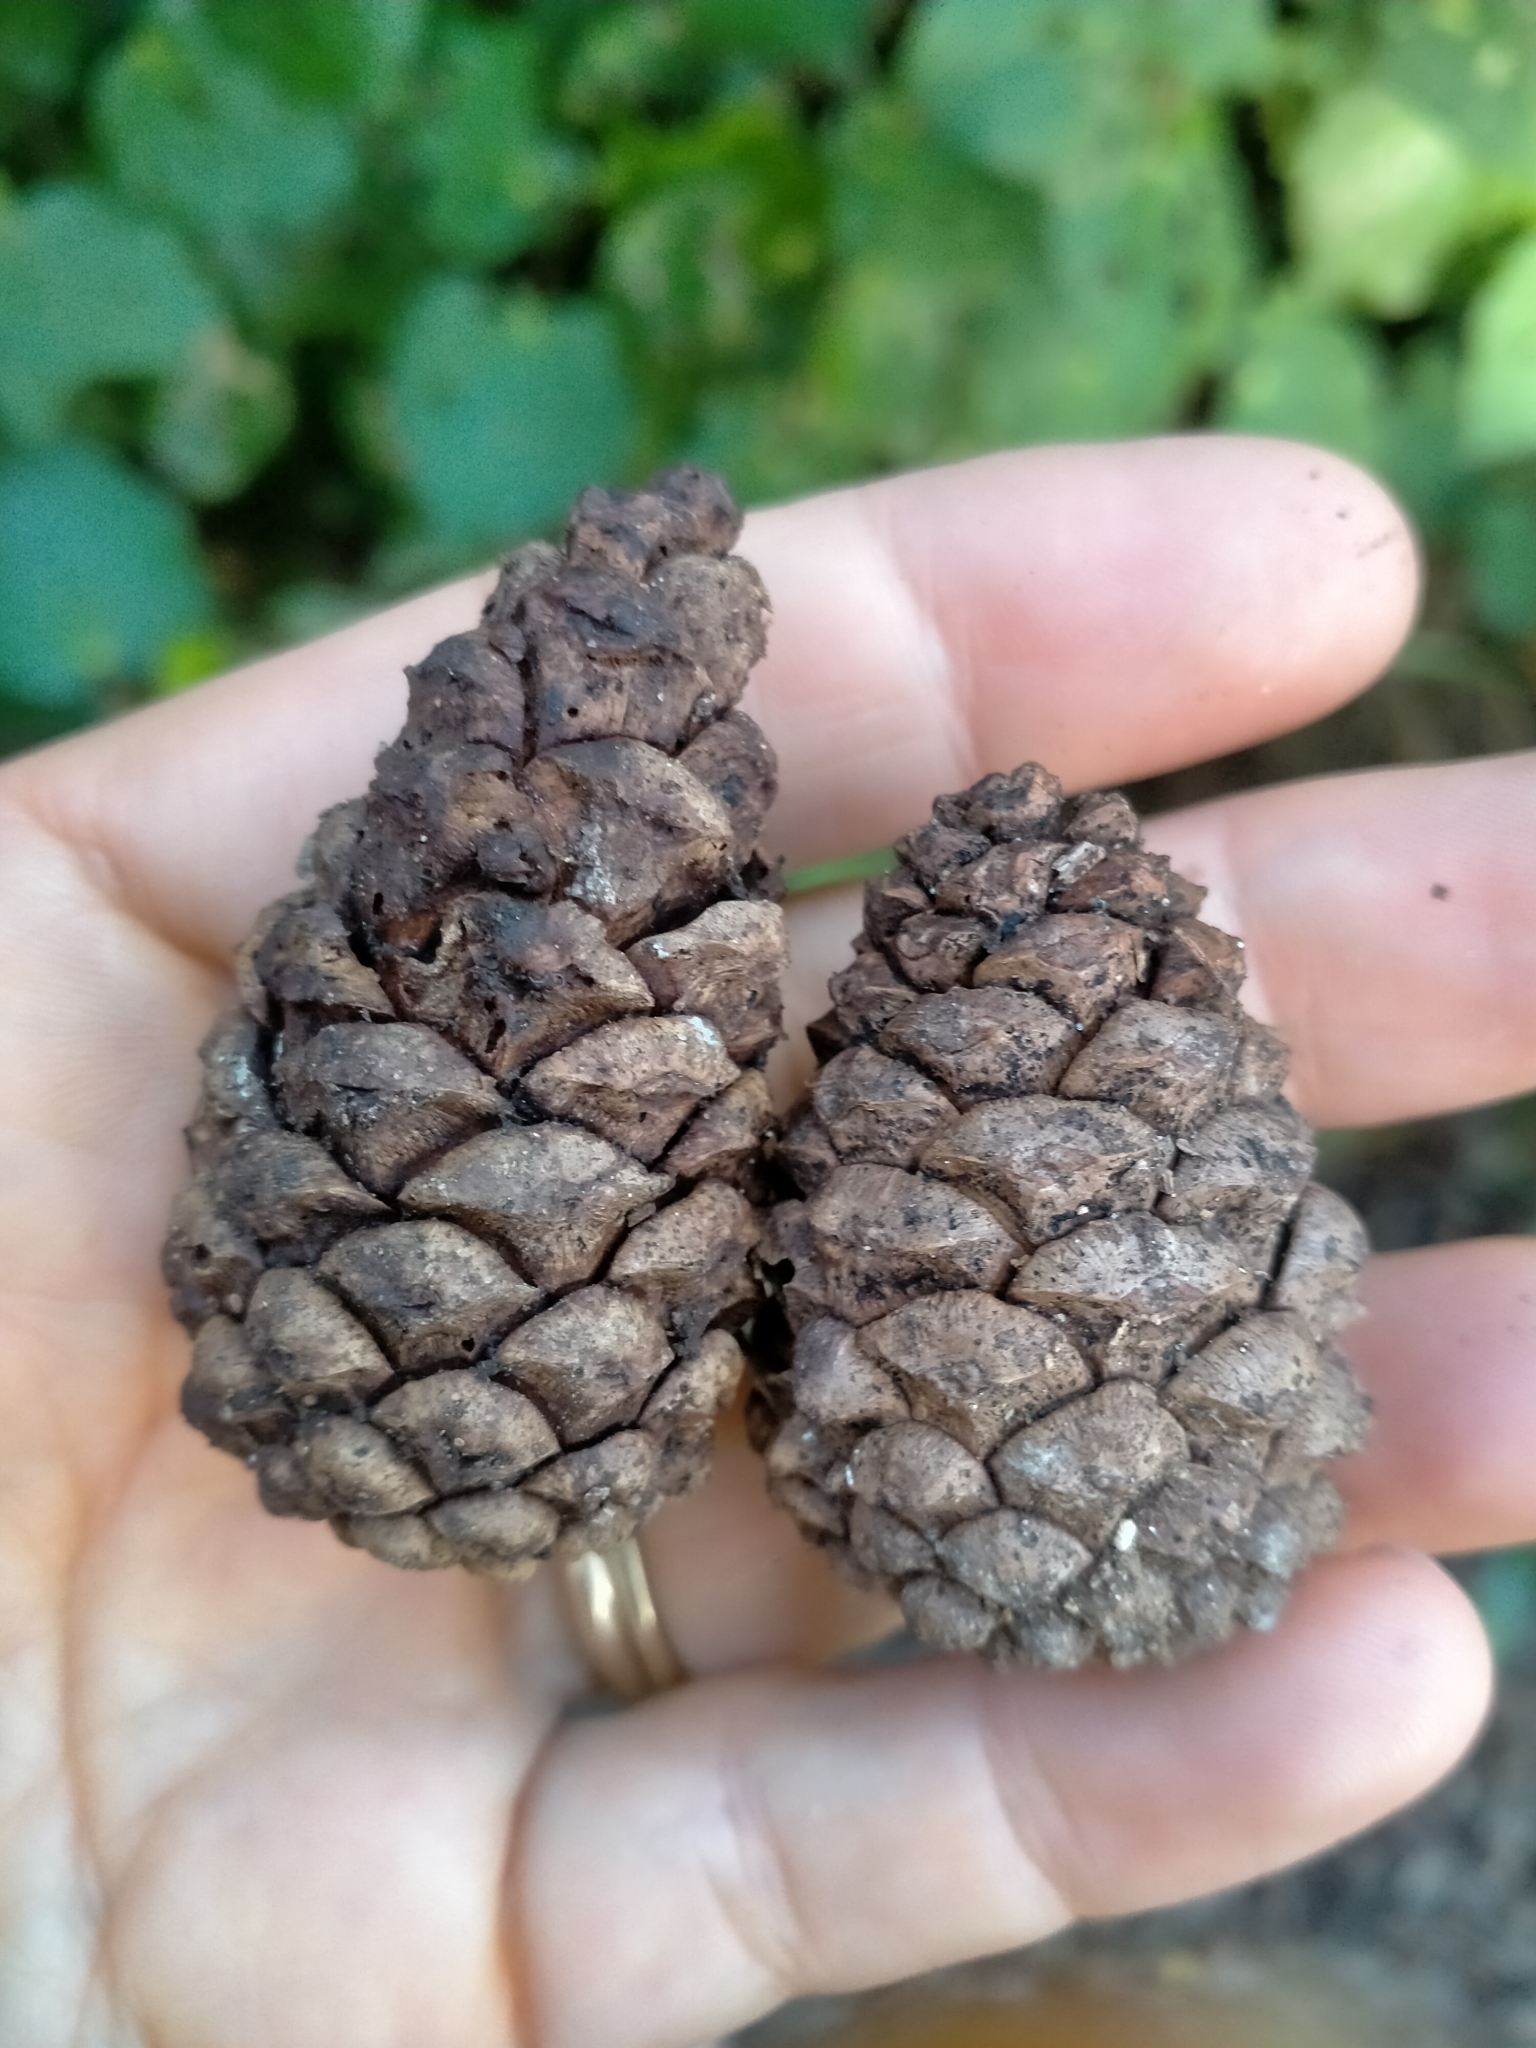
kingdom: Plantae
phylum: Tracheophyta
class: Pinopsida
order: Pinales
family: Pinaceae
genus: Pinus
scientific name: Pinus nigra
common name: Austrian pine
